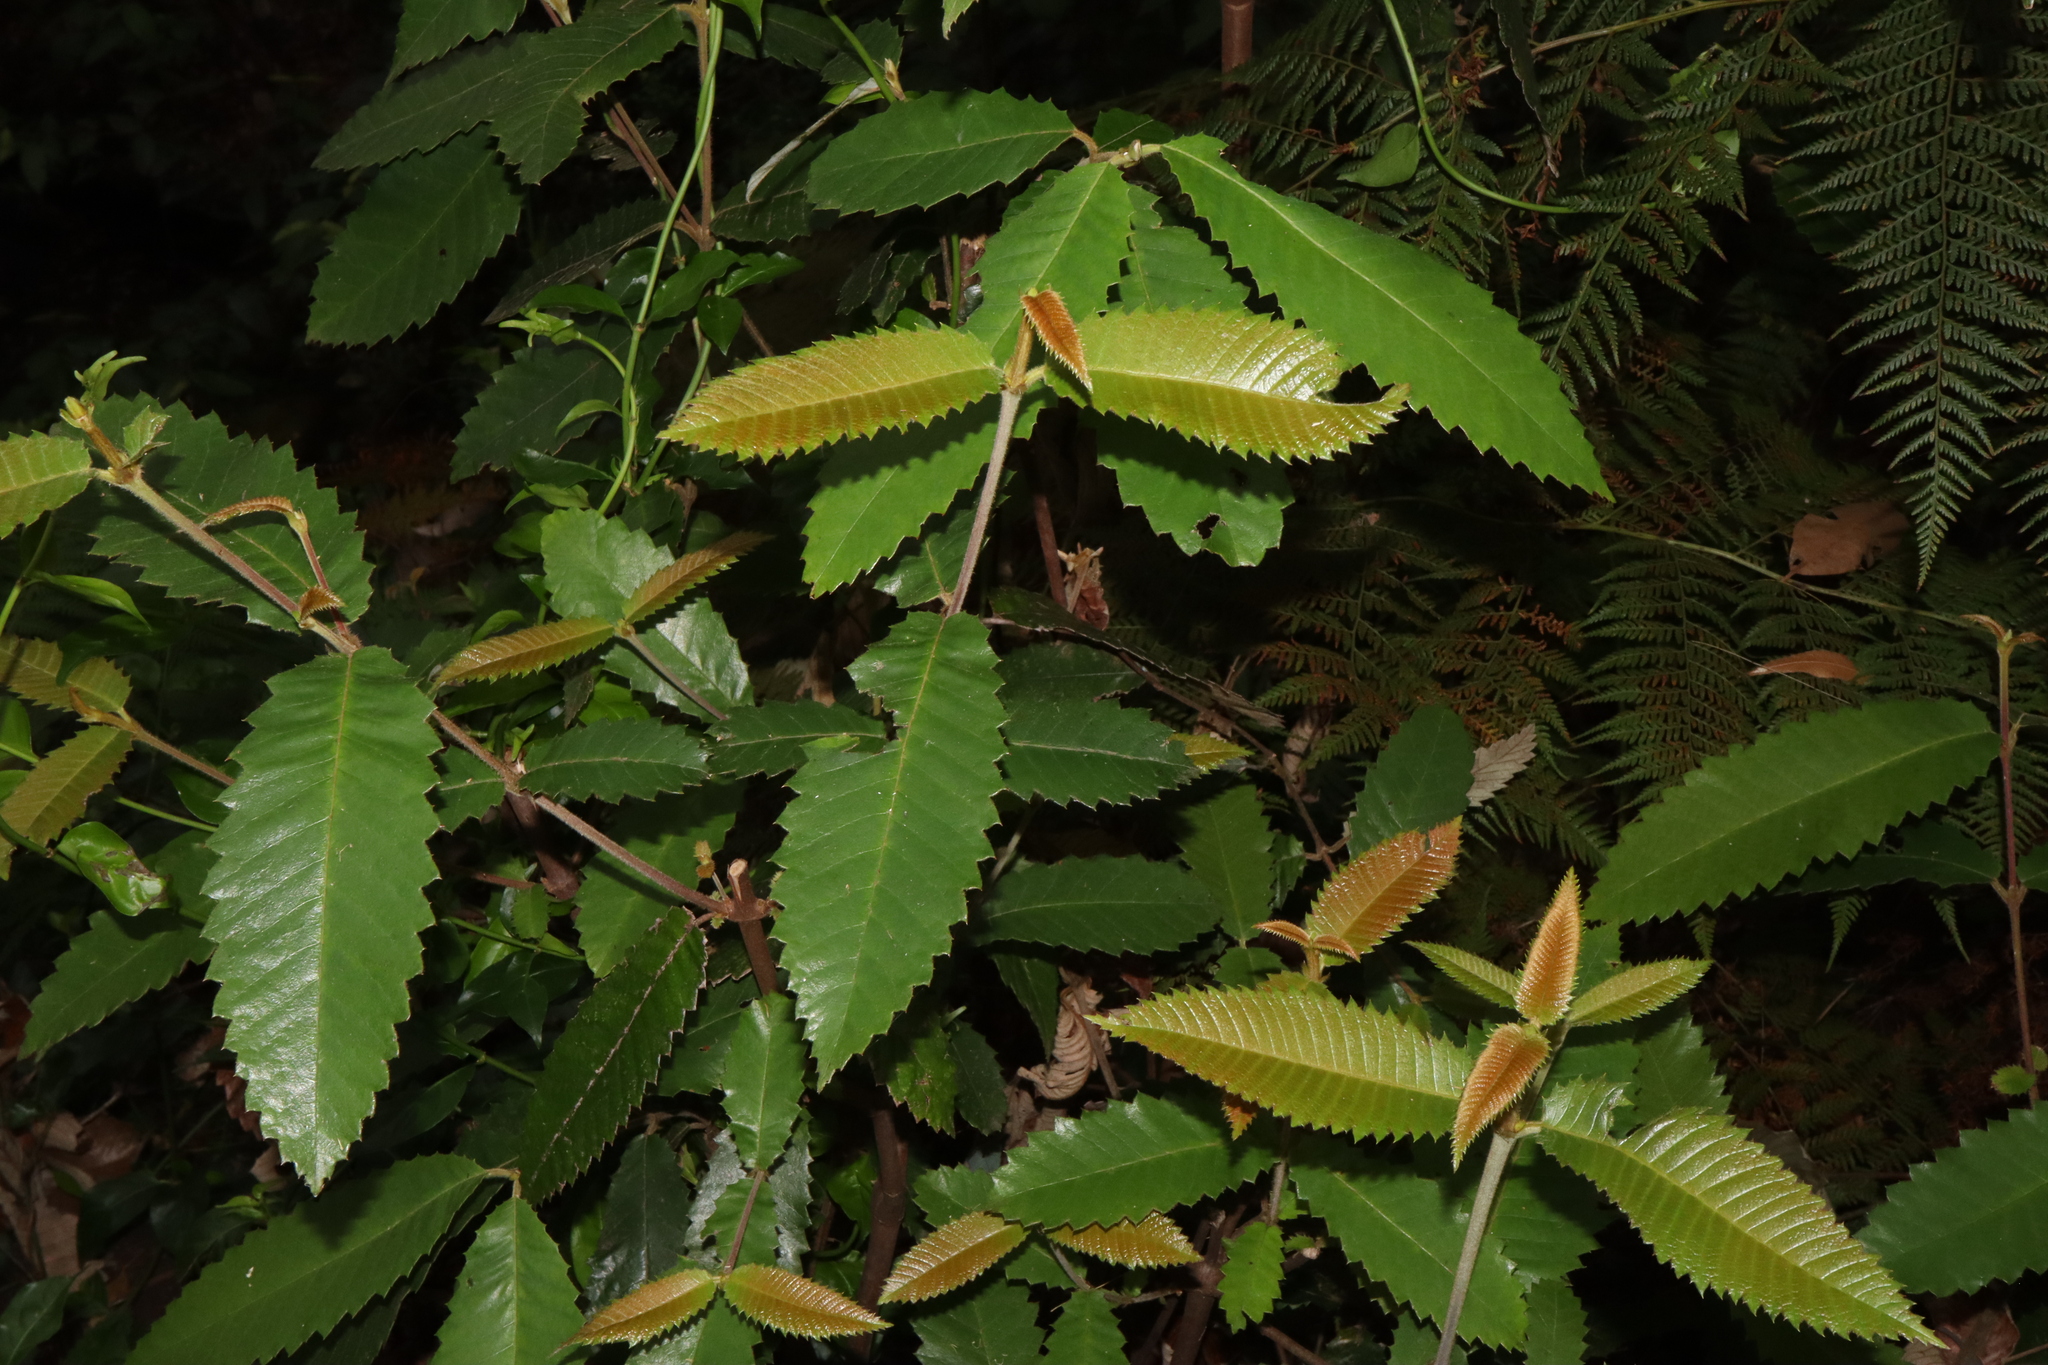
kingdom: Plantae
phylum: Tracheophyta
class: Magnoliopsida
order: Oxalidales
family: Cunoniaceae
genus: Callicoma
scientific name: Callicoma serratifolia
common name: Black wattle
